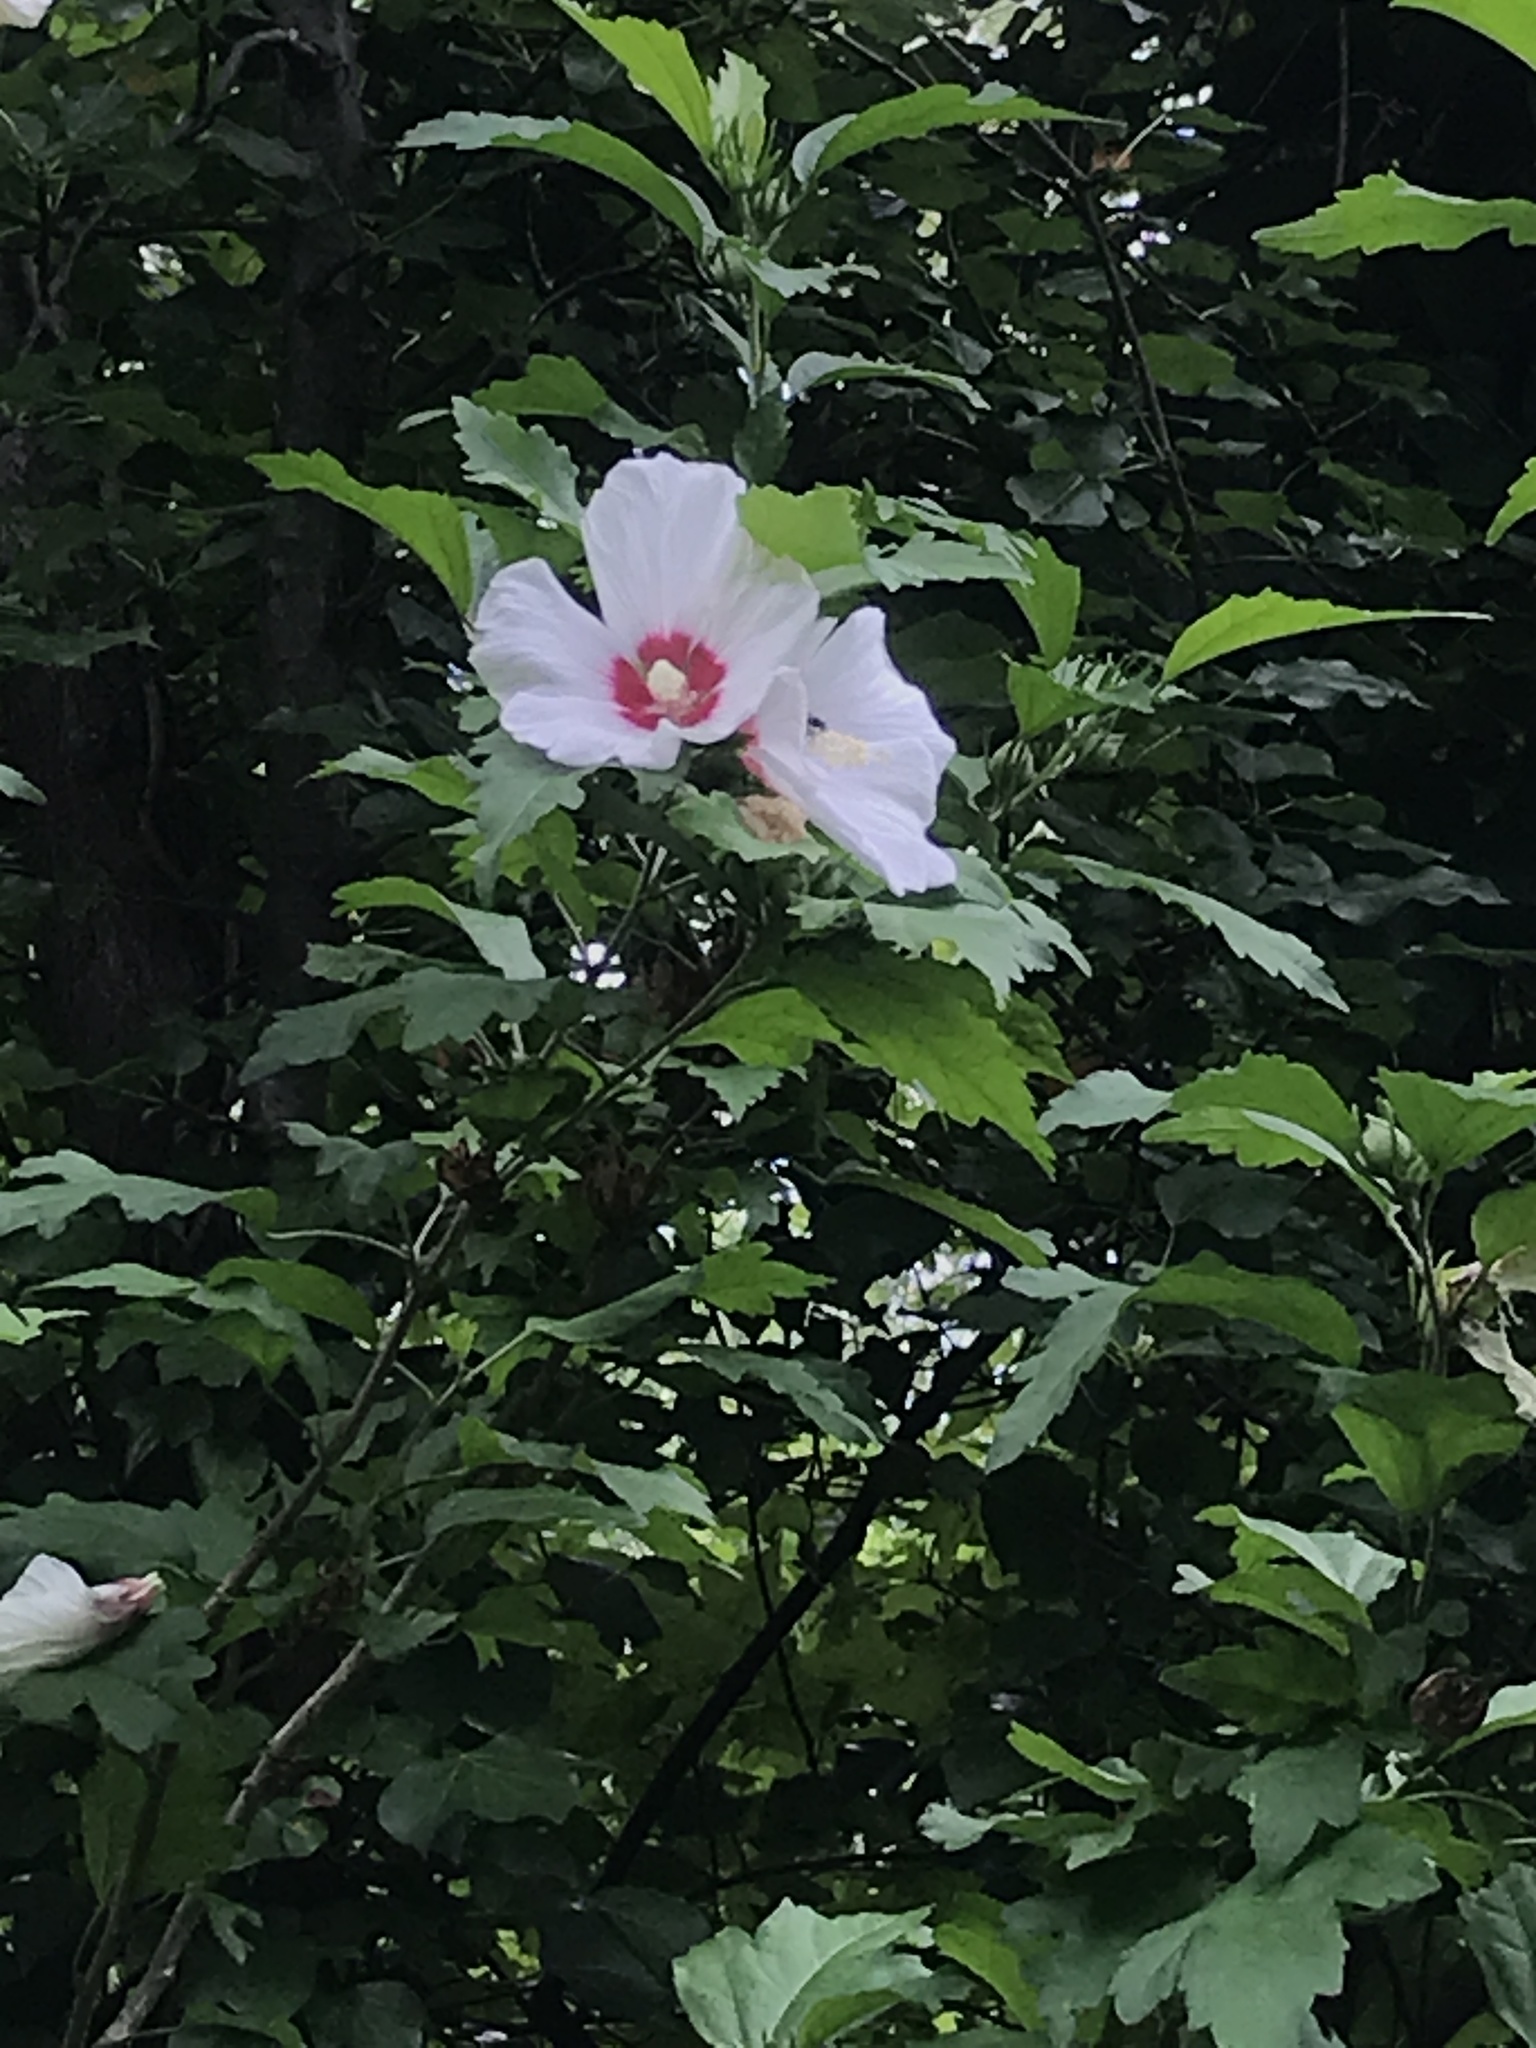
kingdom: Plantae
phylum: Tracheophyta
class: Magnoliopsida
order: Malvales
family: Malvaceae
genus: Hibiscus
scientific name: Hibiscus syriacus
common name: Syrian ketmia
